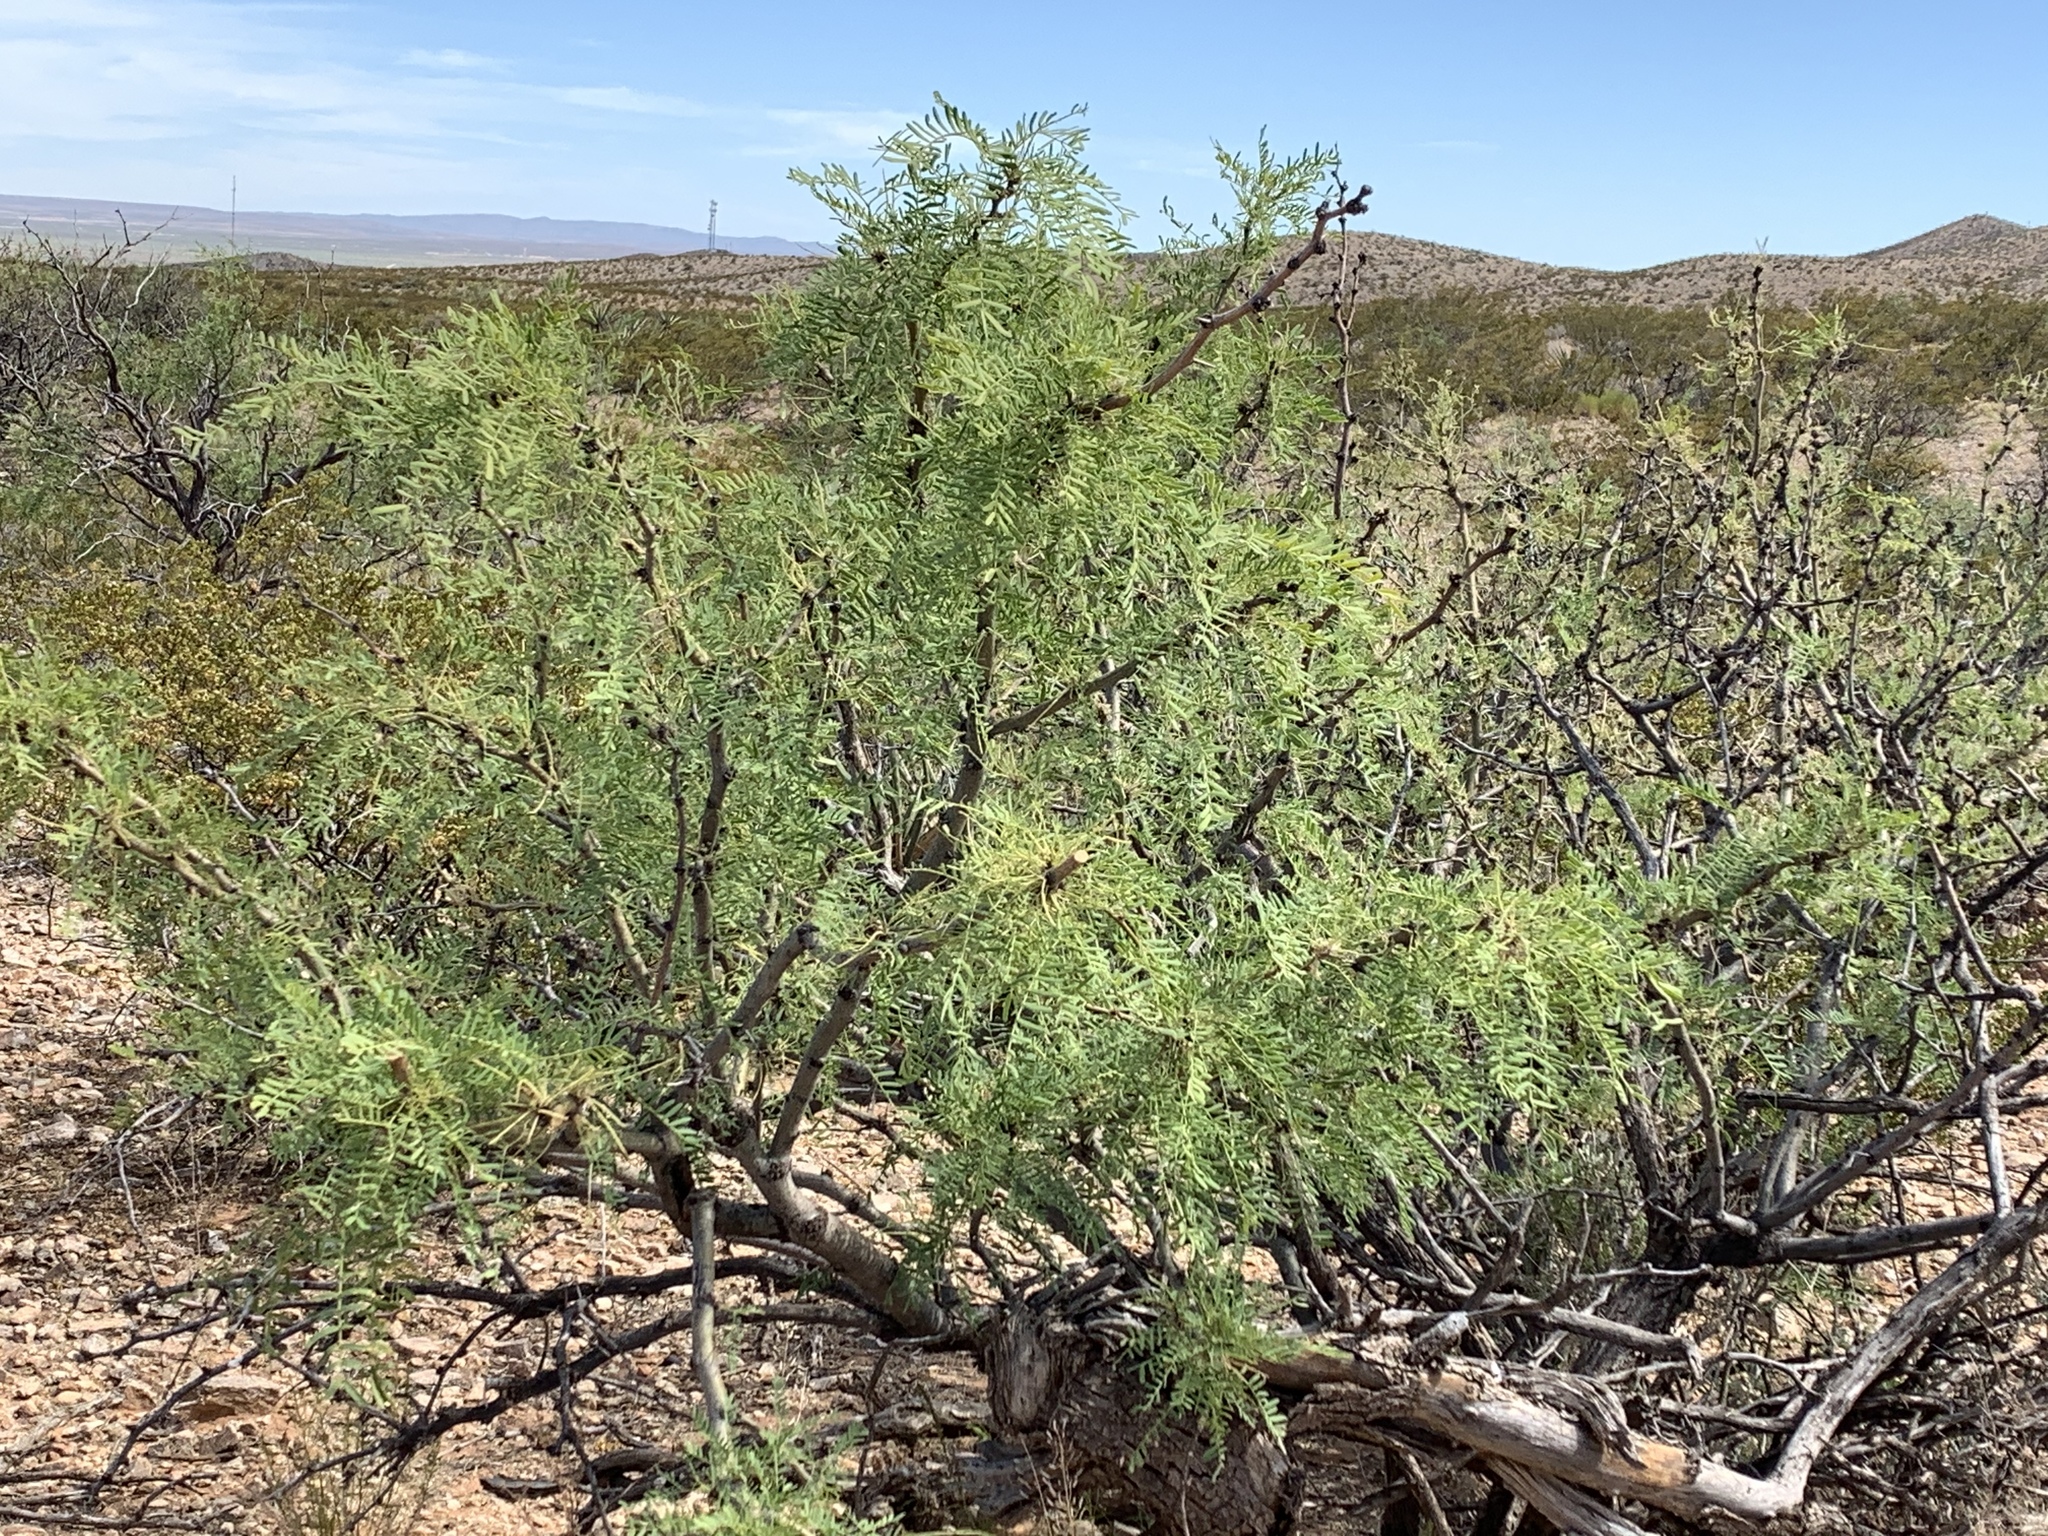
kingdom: Plantae
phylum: Tracheophyta
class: Magnoliopsida
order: Fabales
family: Fabaceae
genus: Prosopis
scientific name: Prosopis glandulosa
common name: Honey mesquite
